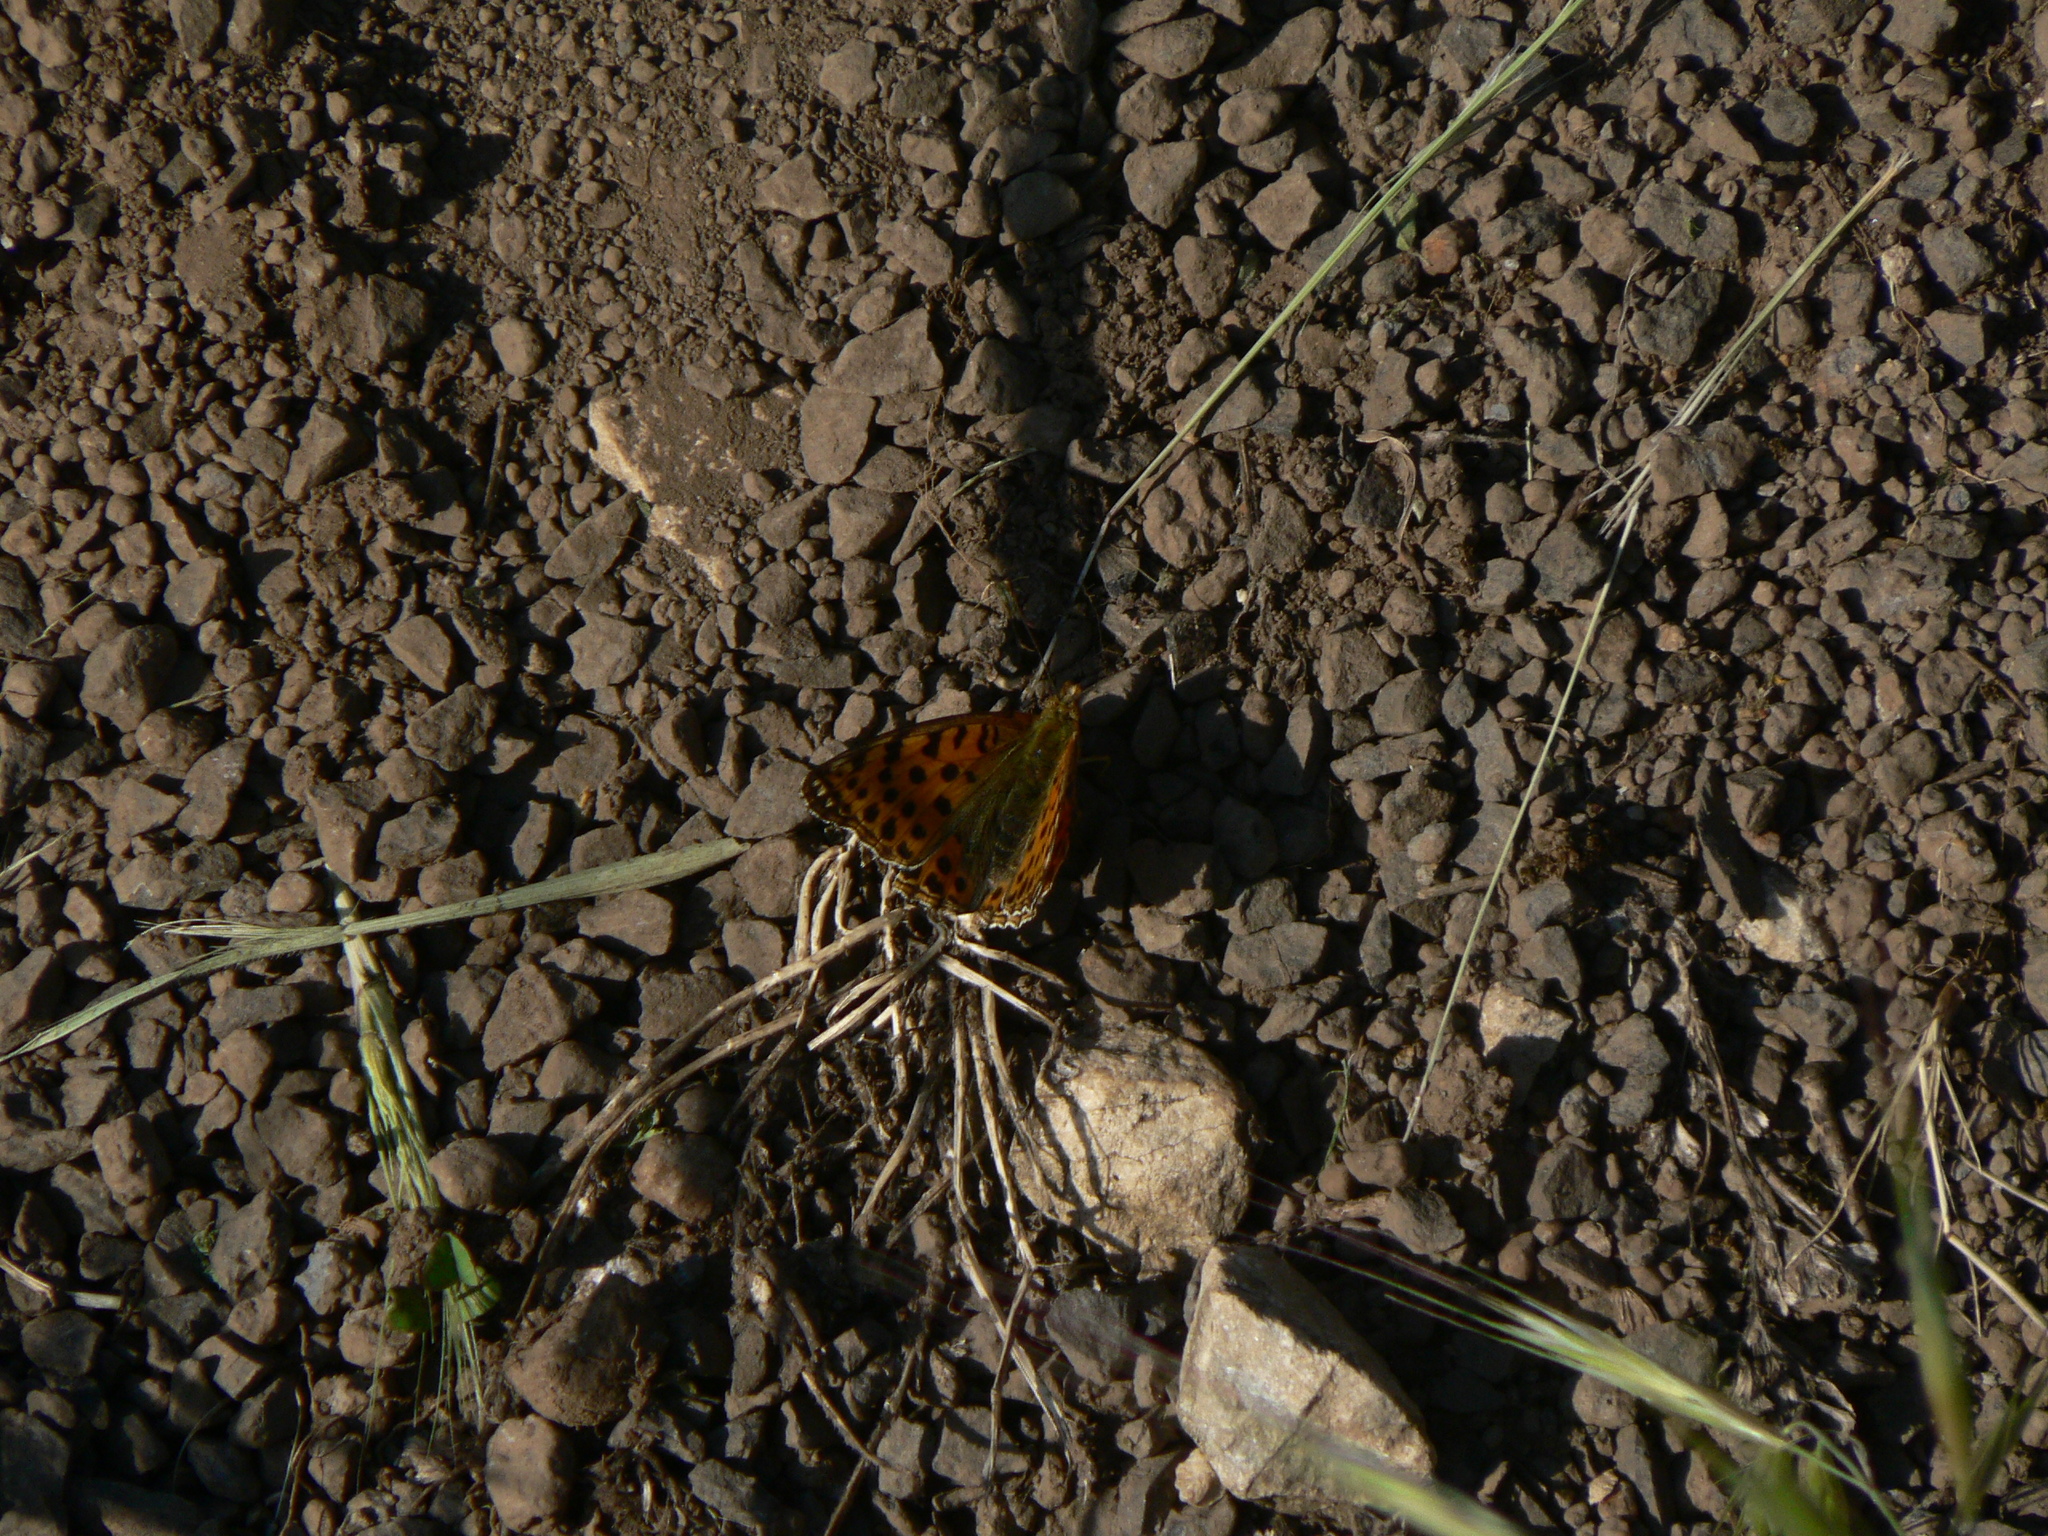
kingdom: Animalia
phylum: Arthropoda
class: Insecta
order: Lepidoptera
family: Nymphalidae
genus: Issoria
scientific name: Issoria lathonia
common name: Queen of spain fritillary
